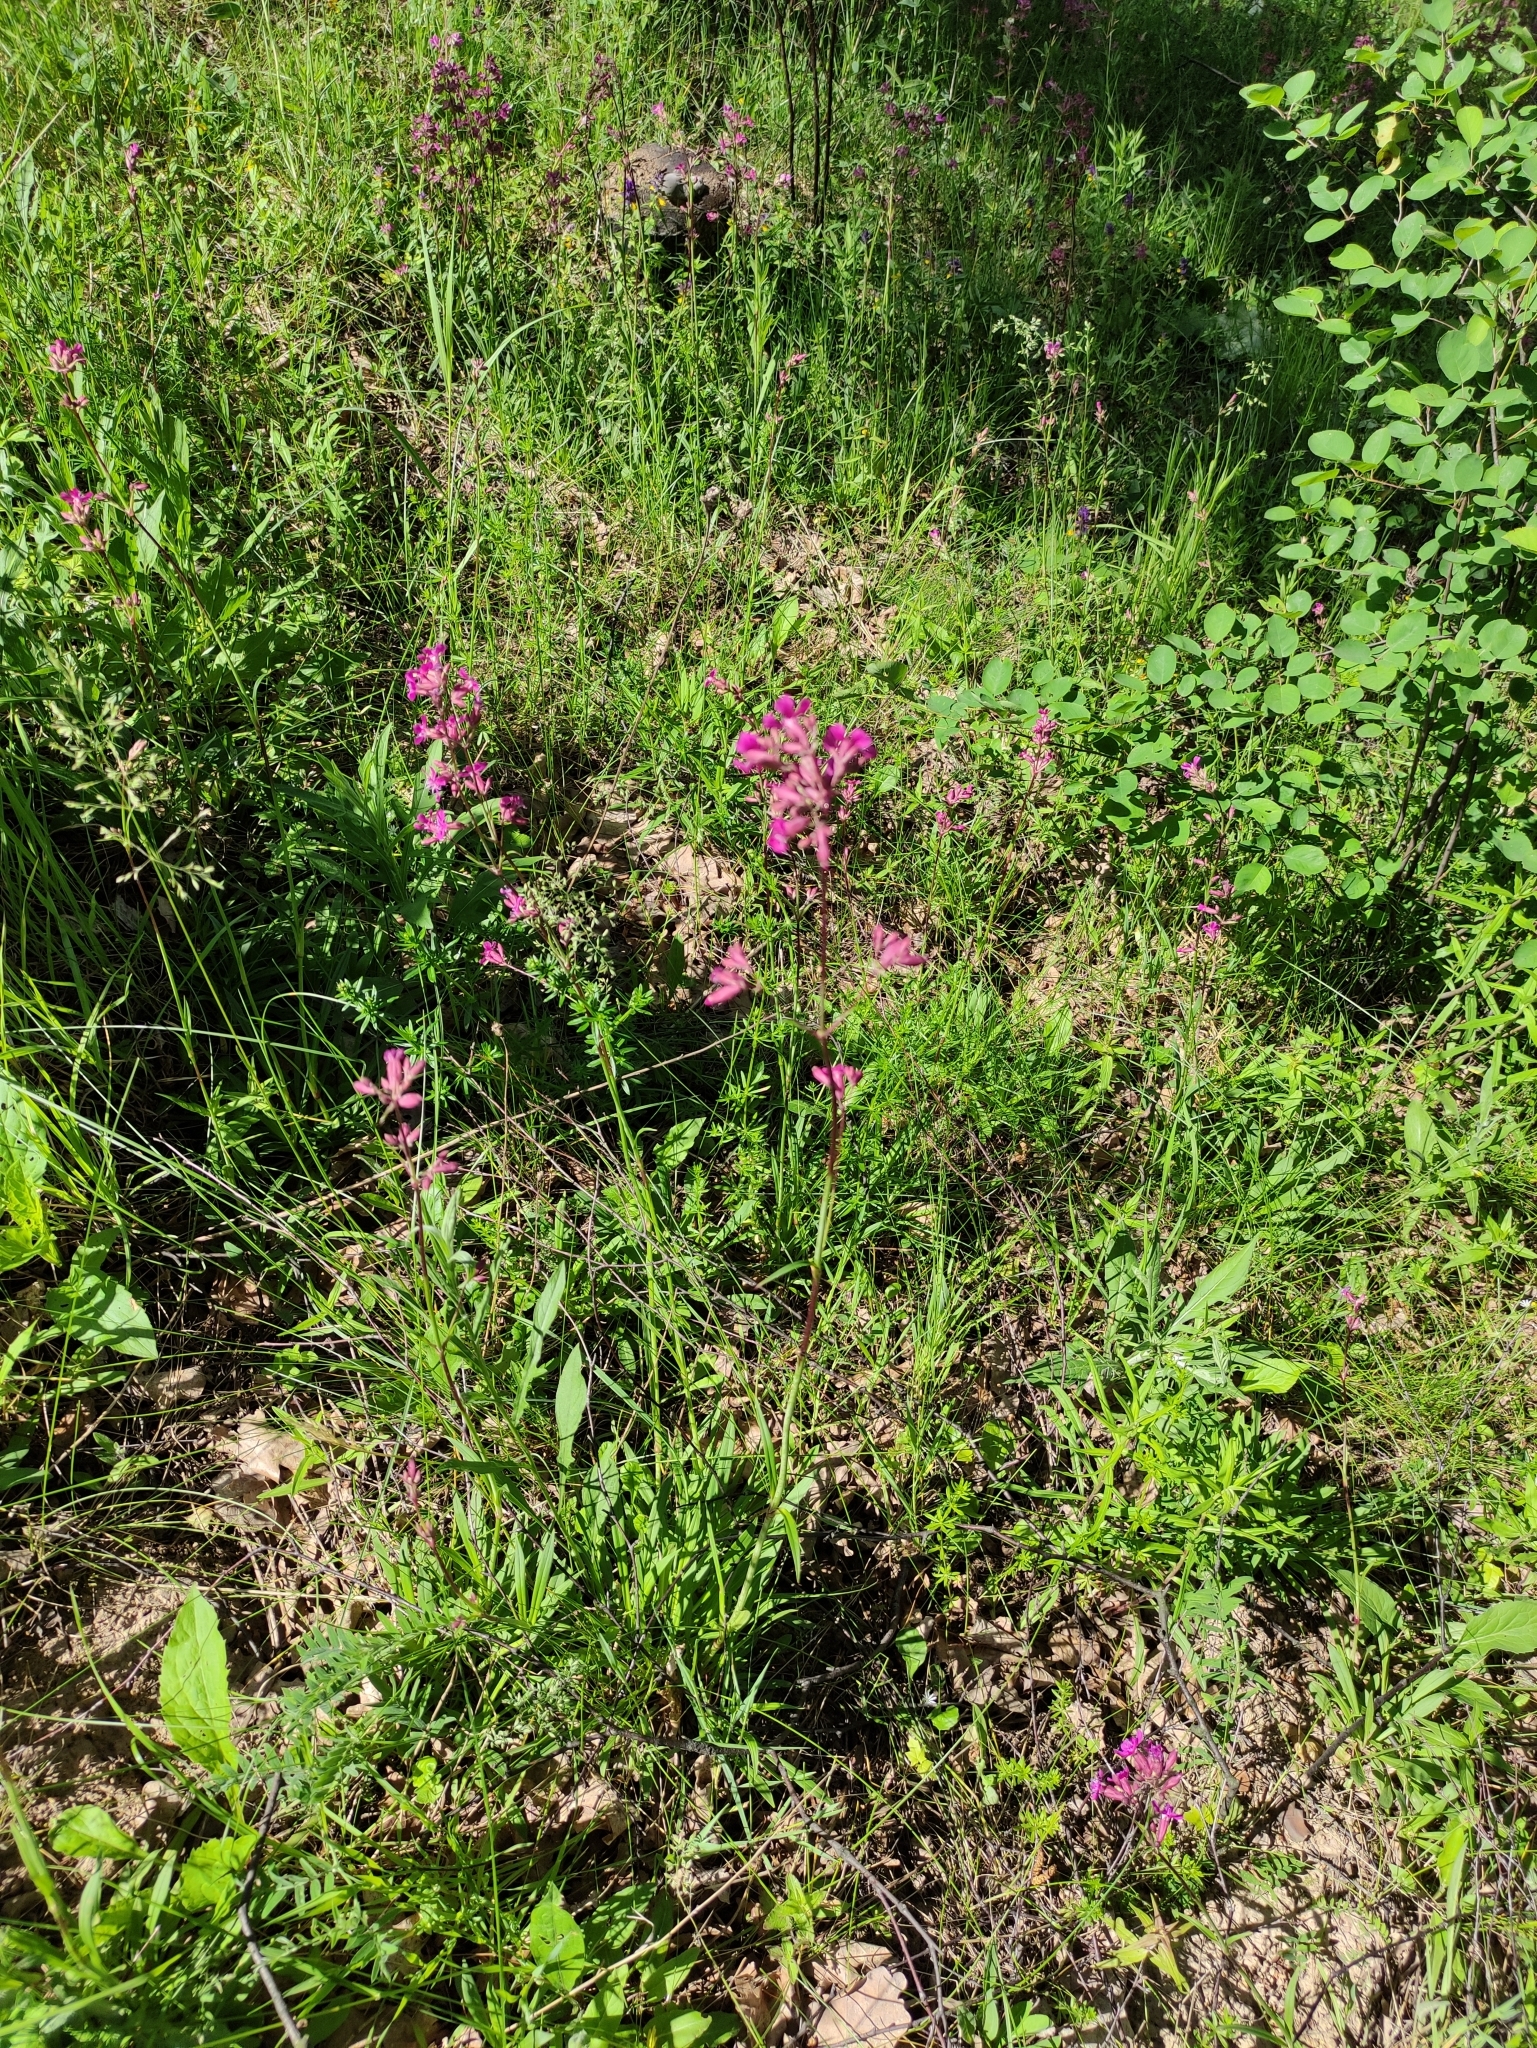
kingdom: Plantae
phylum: Tracheophyta
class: Magnoliopsida
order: Caryophyllales
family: Caryophyllaceae
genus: Viscaria
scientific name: Viscaria vulgaris
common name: Clammy campion
